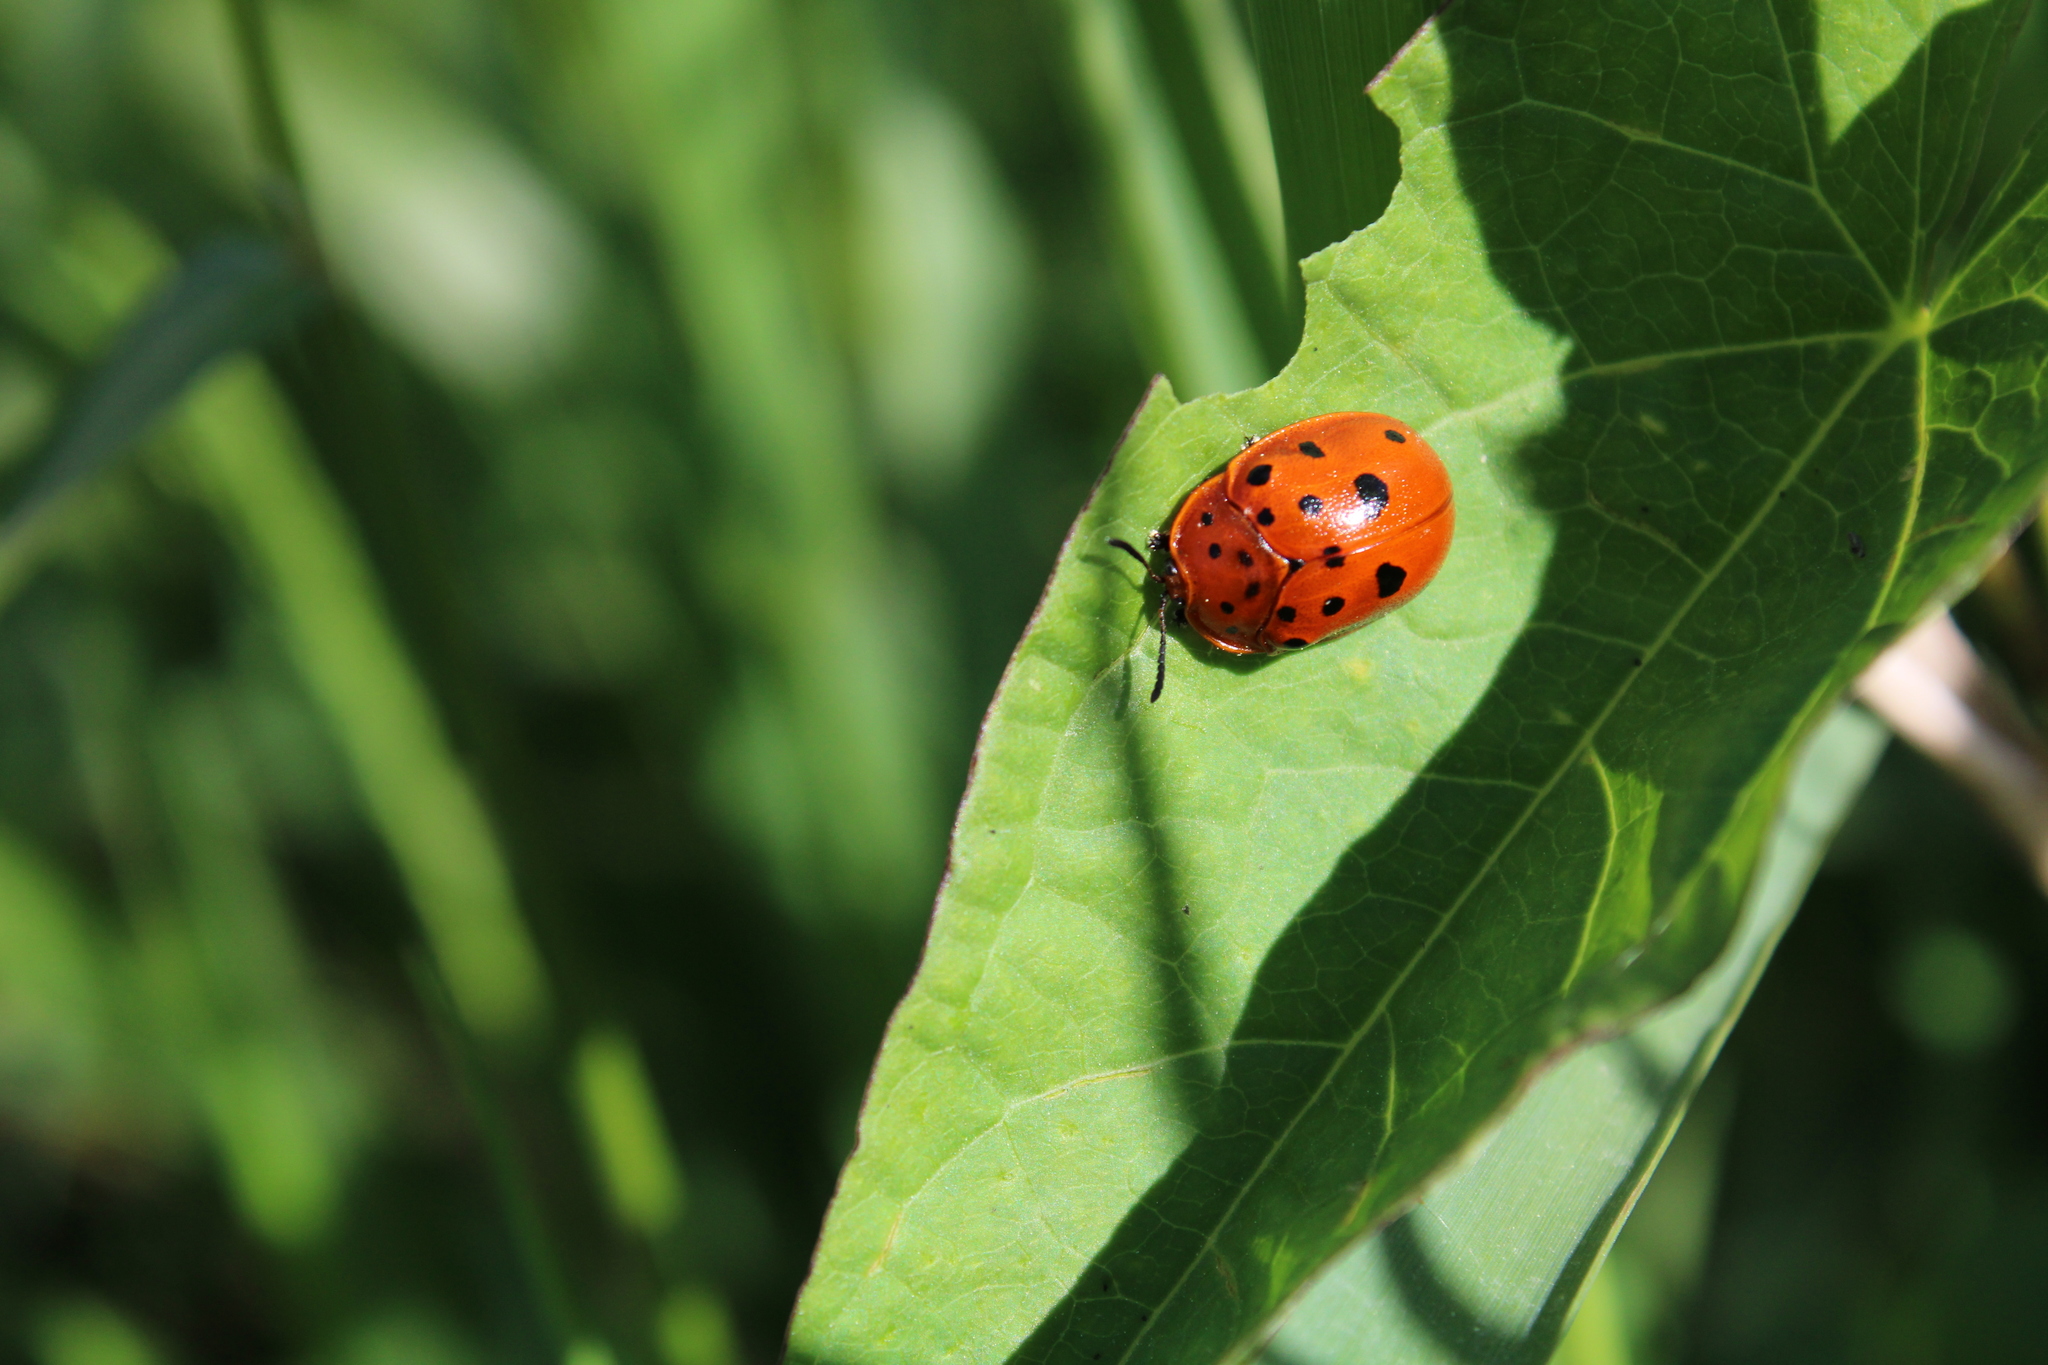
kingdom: Animalia
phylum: Arthropoda
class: Insecta
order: Coleoptera
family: Chrysomelidae
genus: Chelymorpha
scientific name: Chelymorpha cassidea
